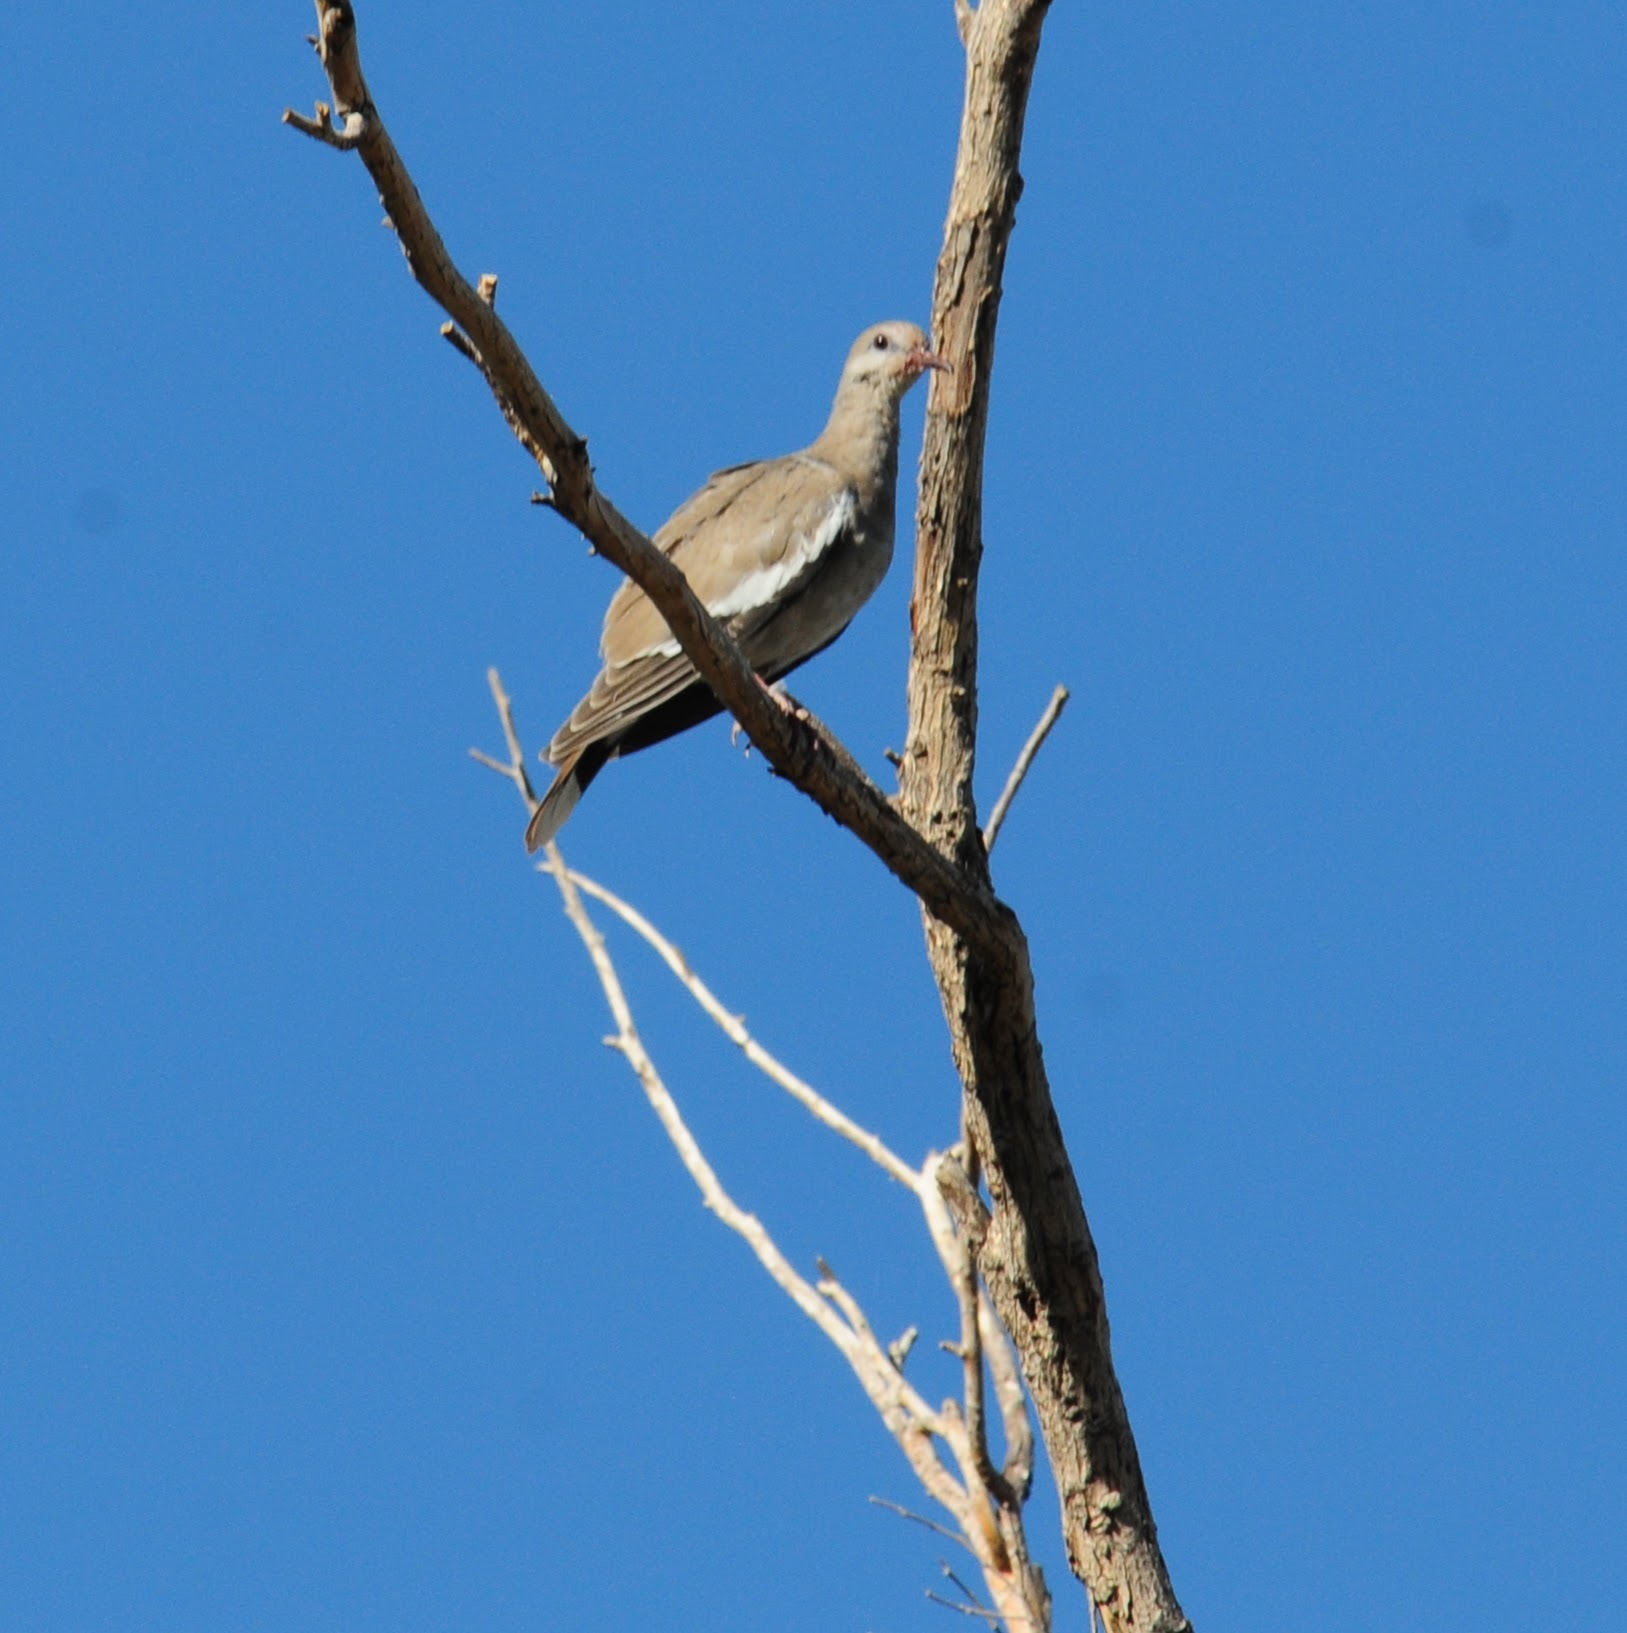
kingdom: Animalia
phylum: Chordata
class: Aves
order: Columbiformes
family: Columbidae
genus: Zenaida
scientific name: Zenaida asiatica
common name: White-winged dove
